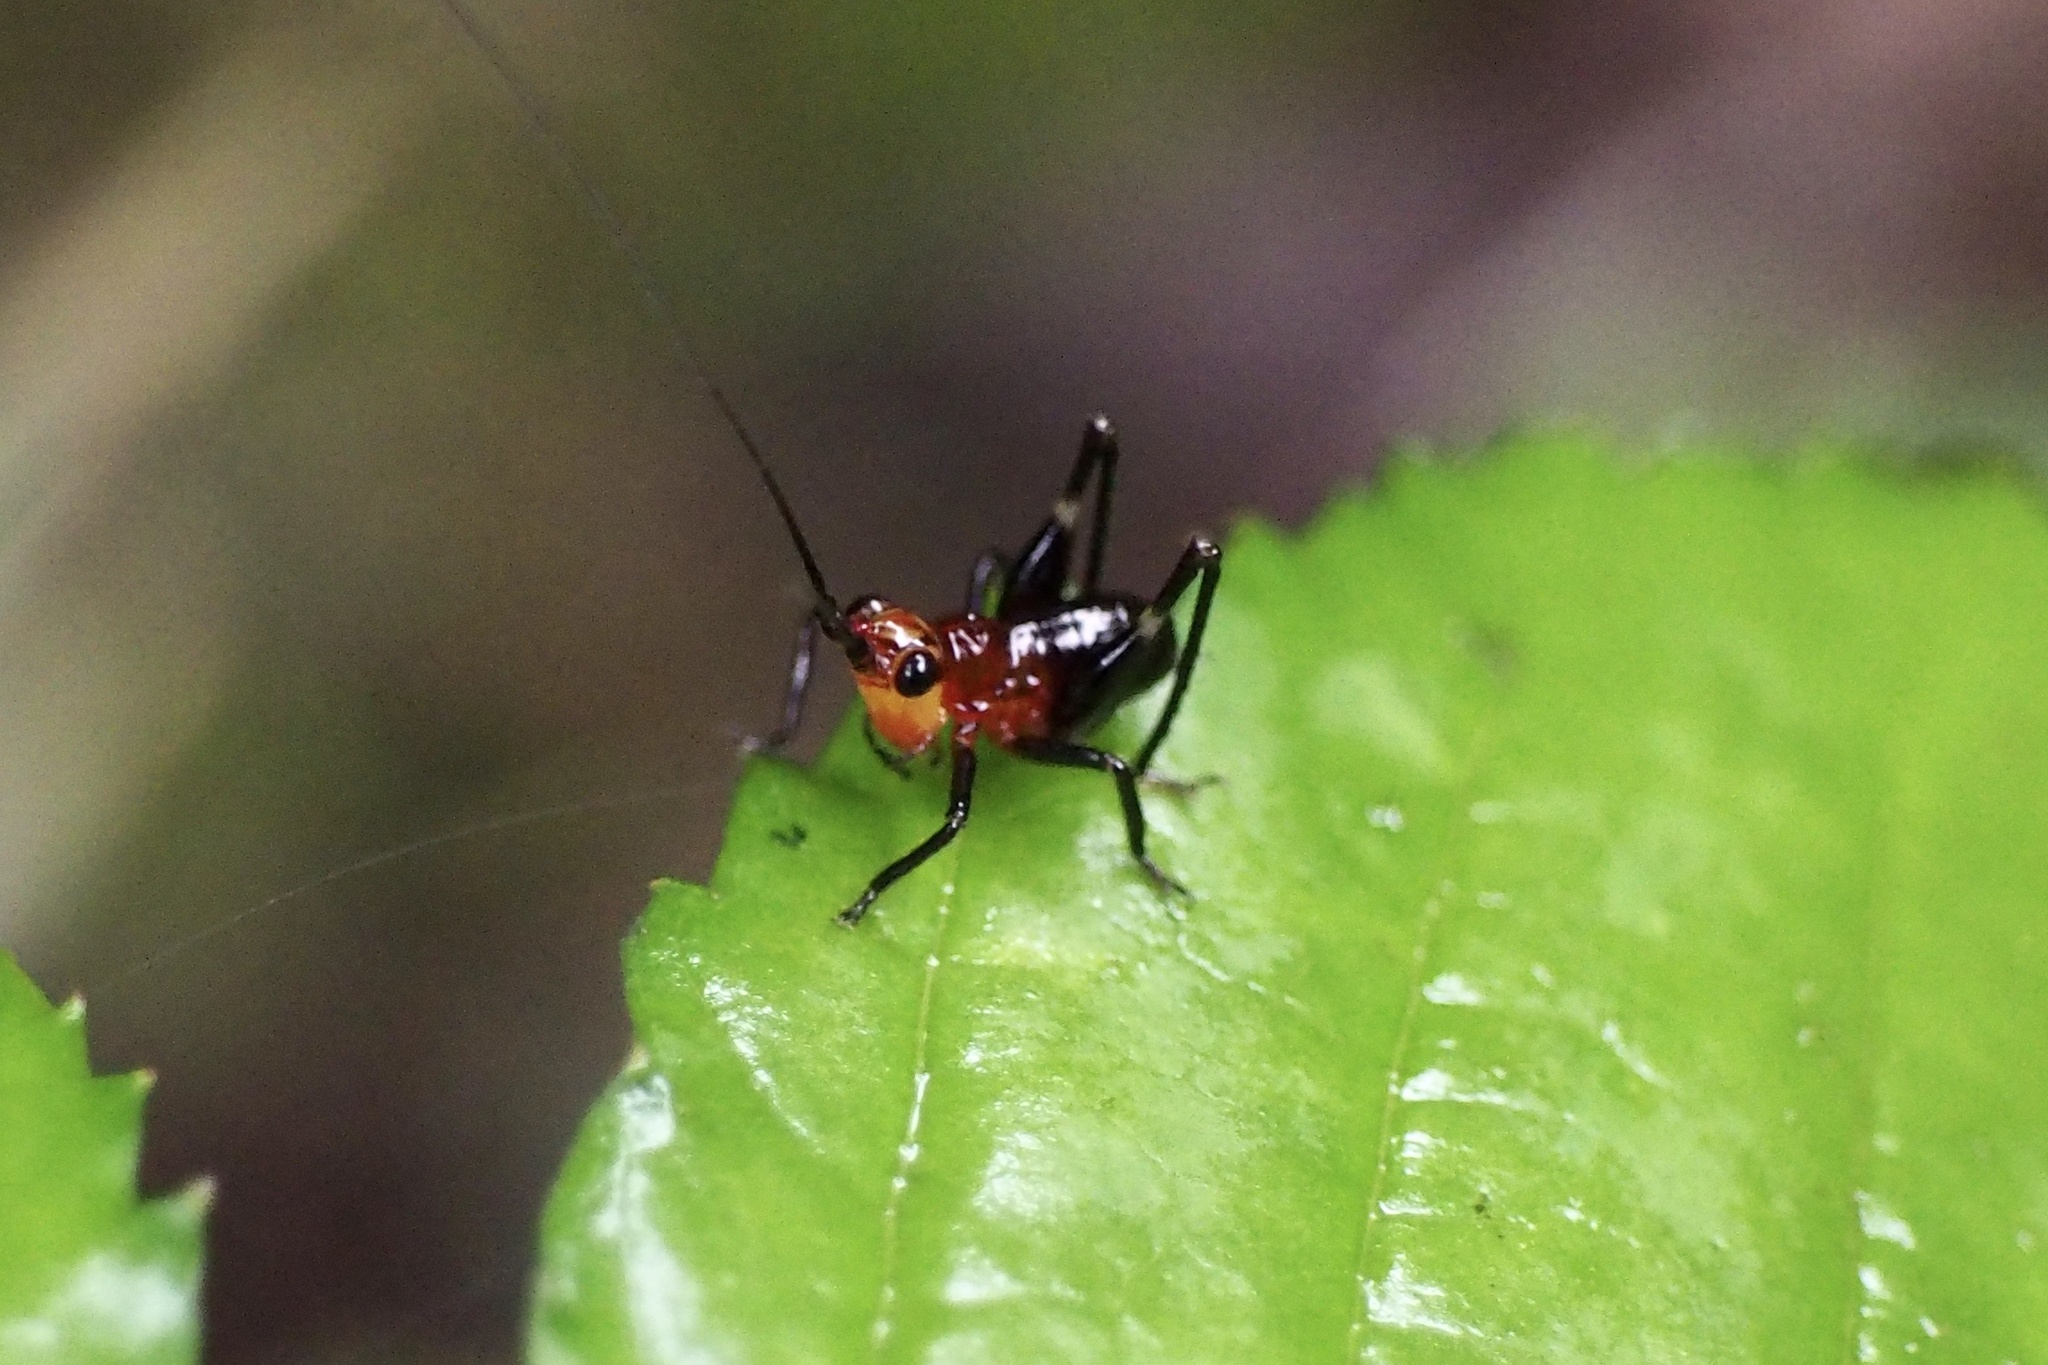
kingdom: Animalia
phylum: Arthropoda
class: Insecta
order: Orthoptera
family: Tettigoniidae
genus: Conocephalus
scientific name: Conocephalus melaenus
